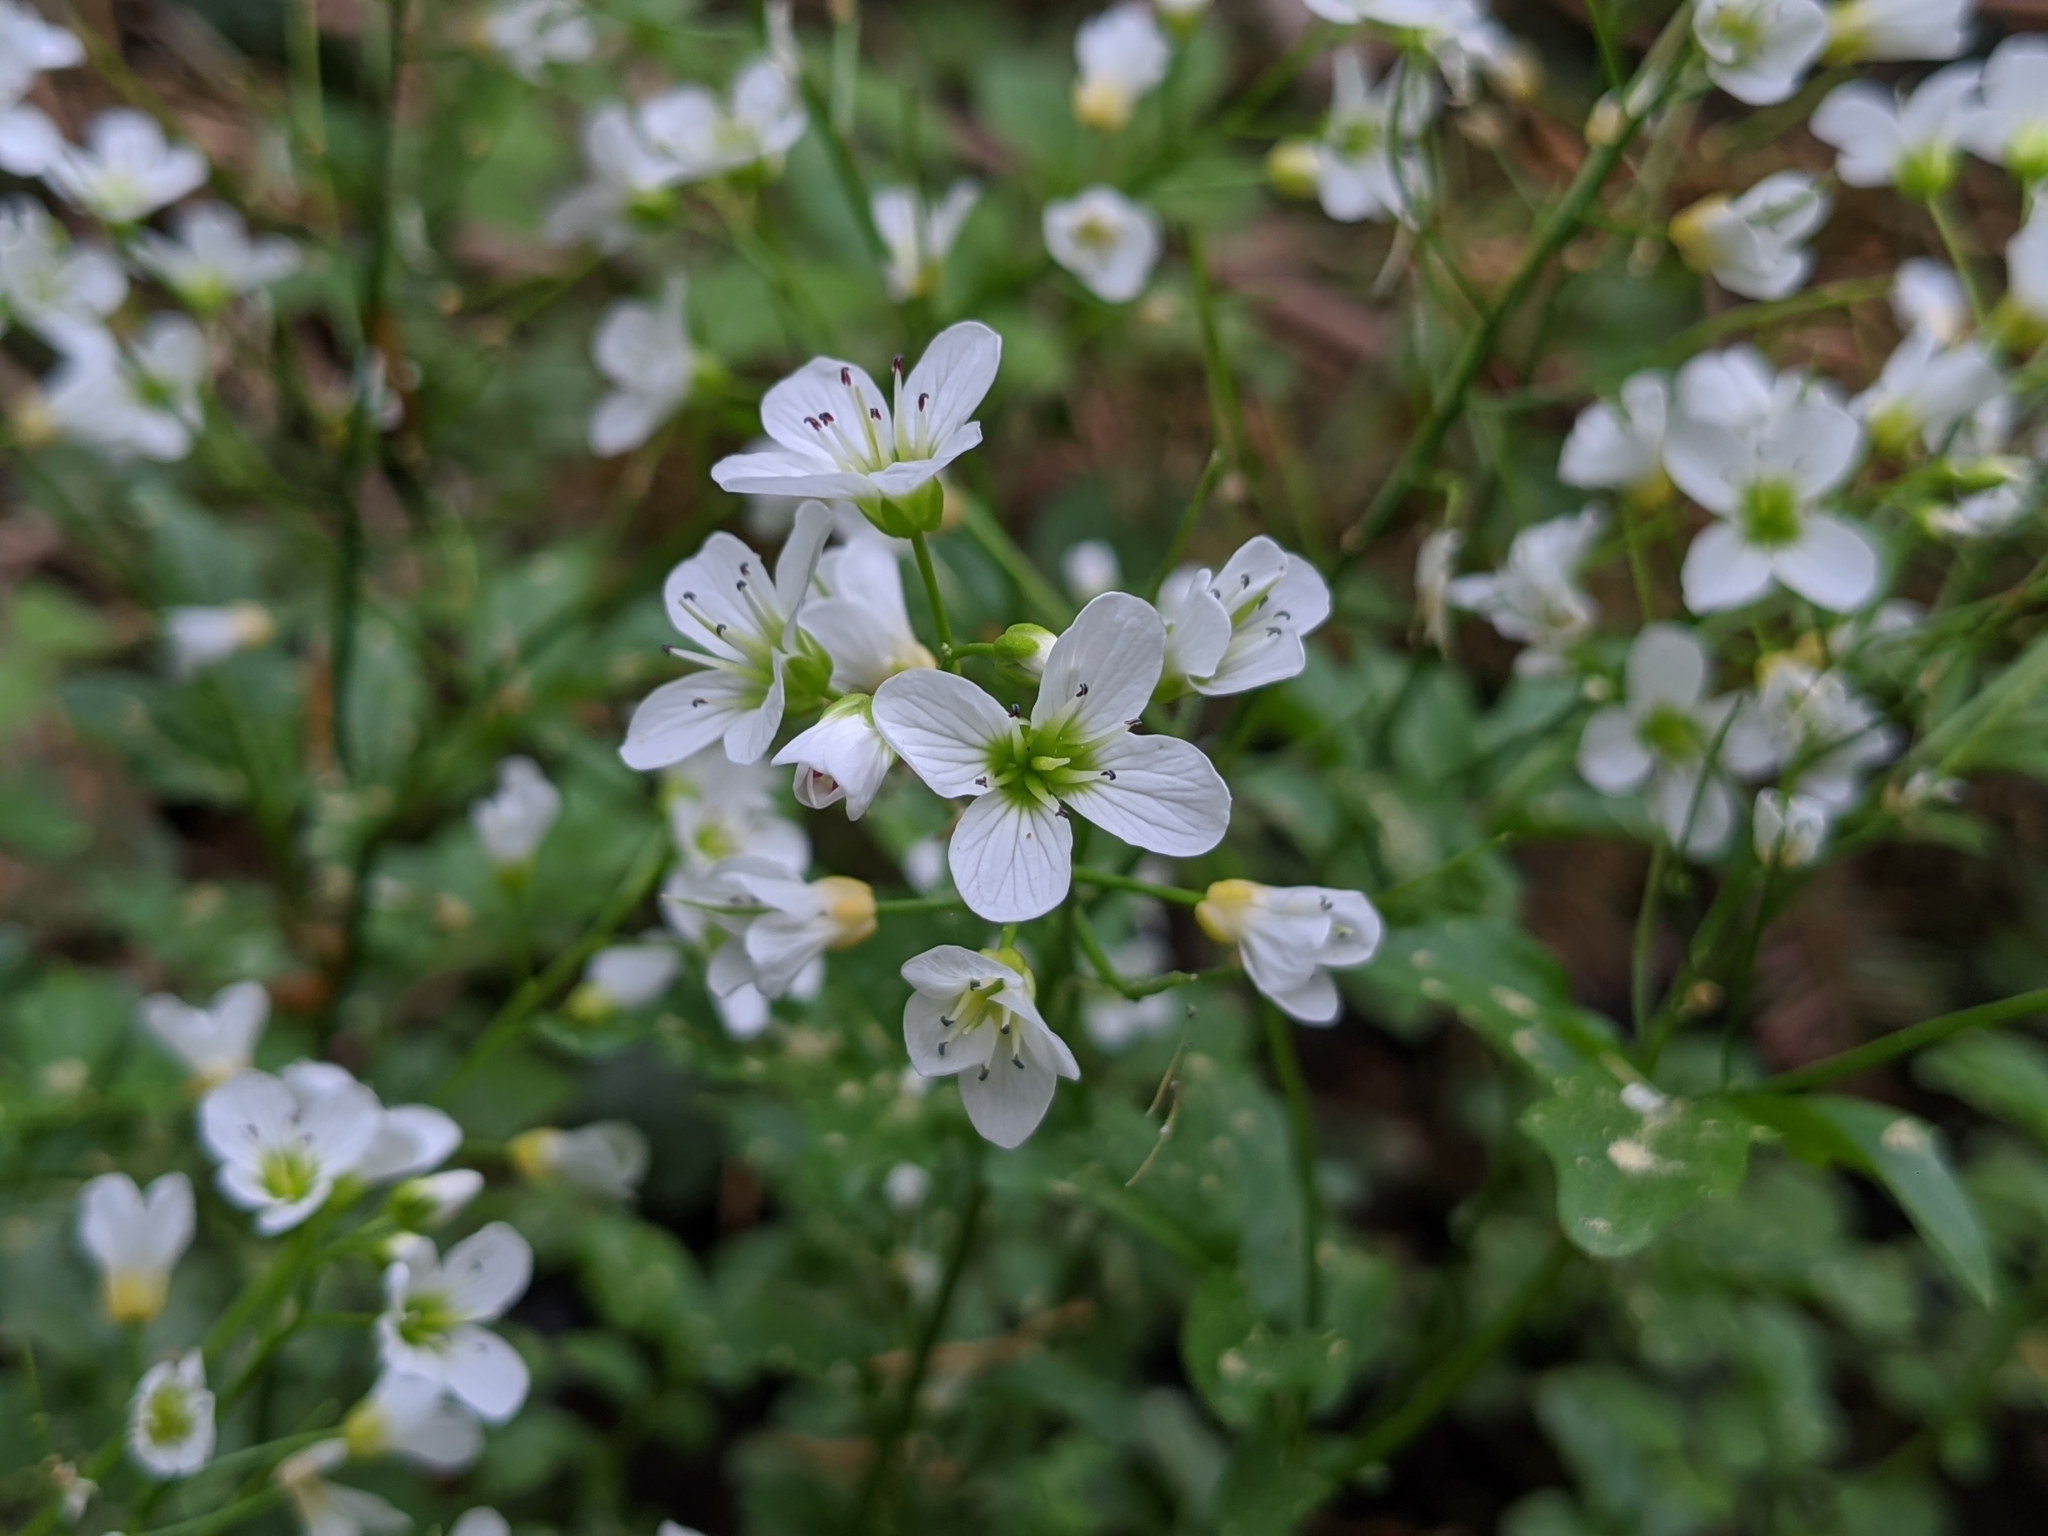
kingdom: Plantae
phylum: Tracheophyta
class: Magnoliopsida
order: Brassicales
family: Brassicaceae
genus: Cardamine
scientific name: Cardamine amara
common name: Large bitter-cress
